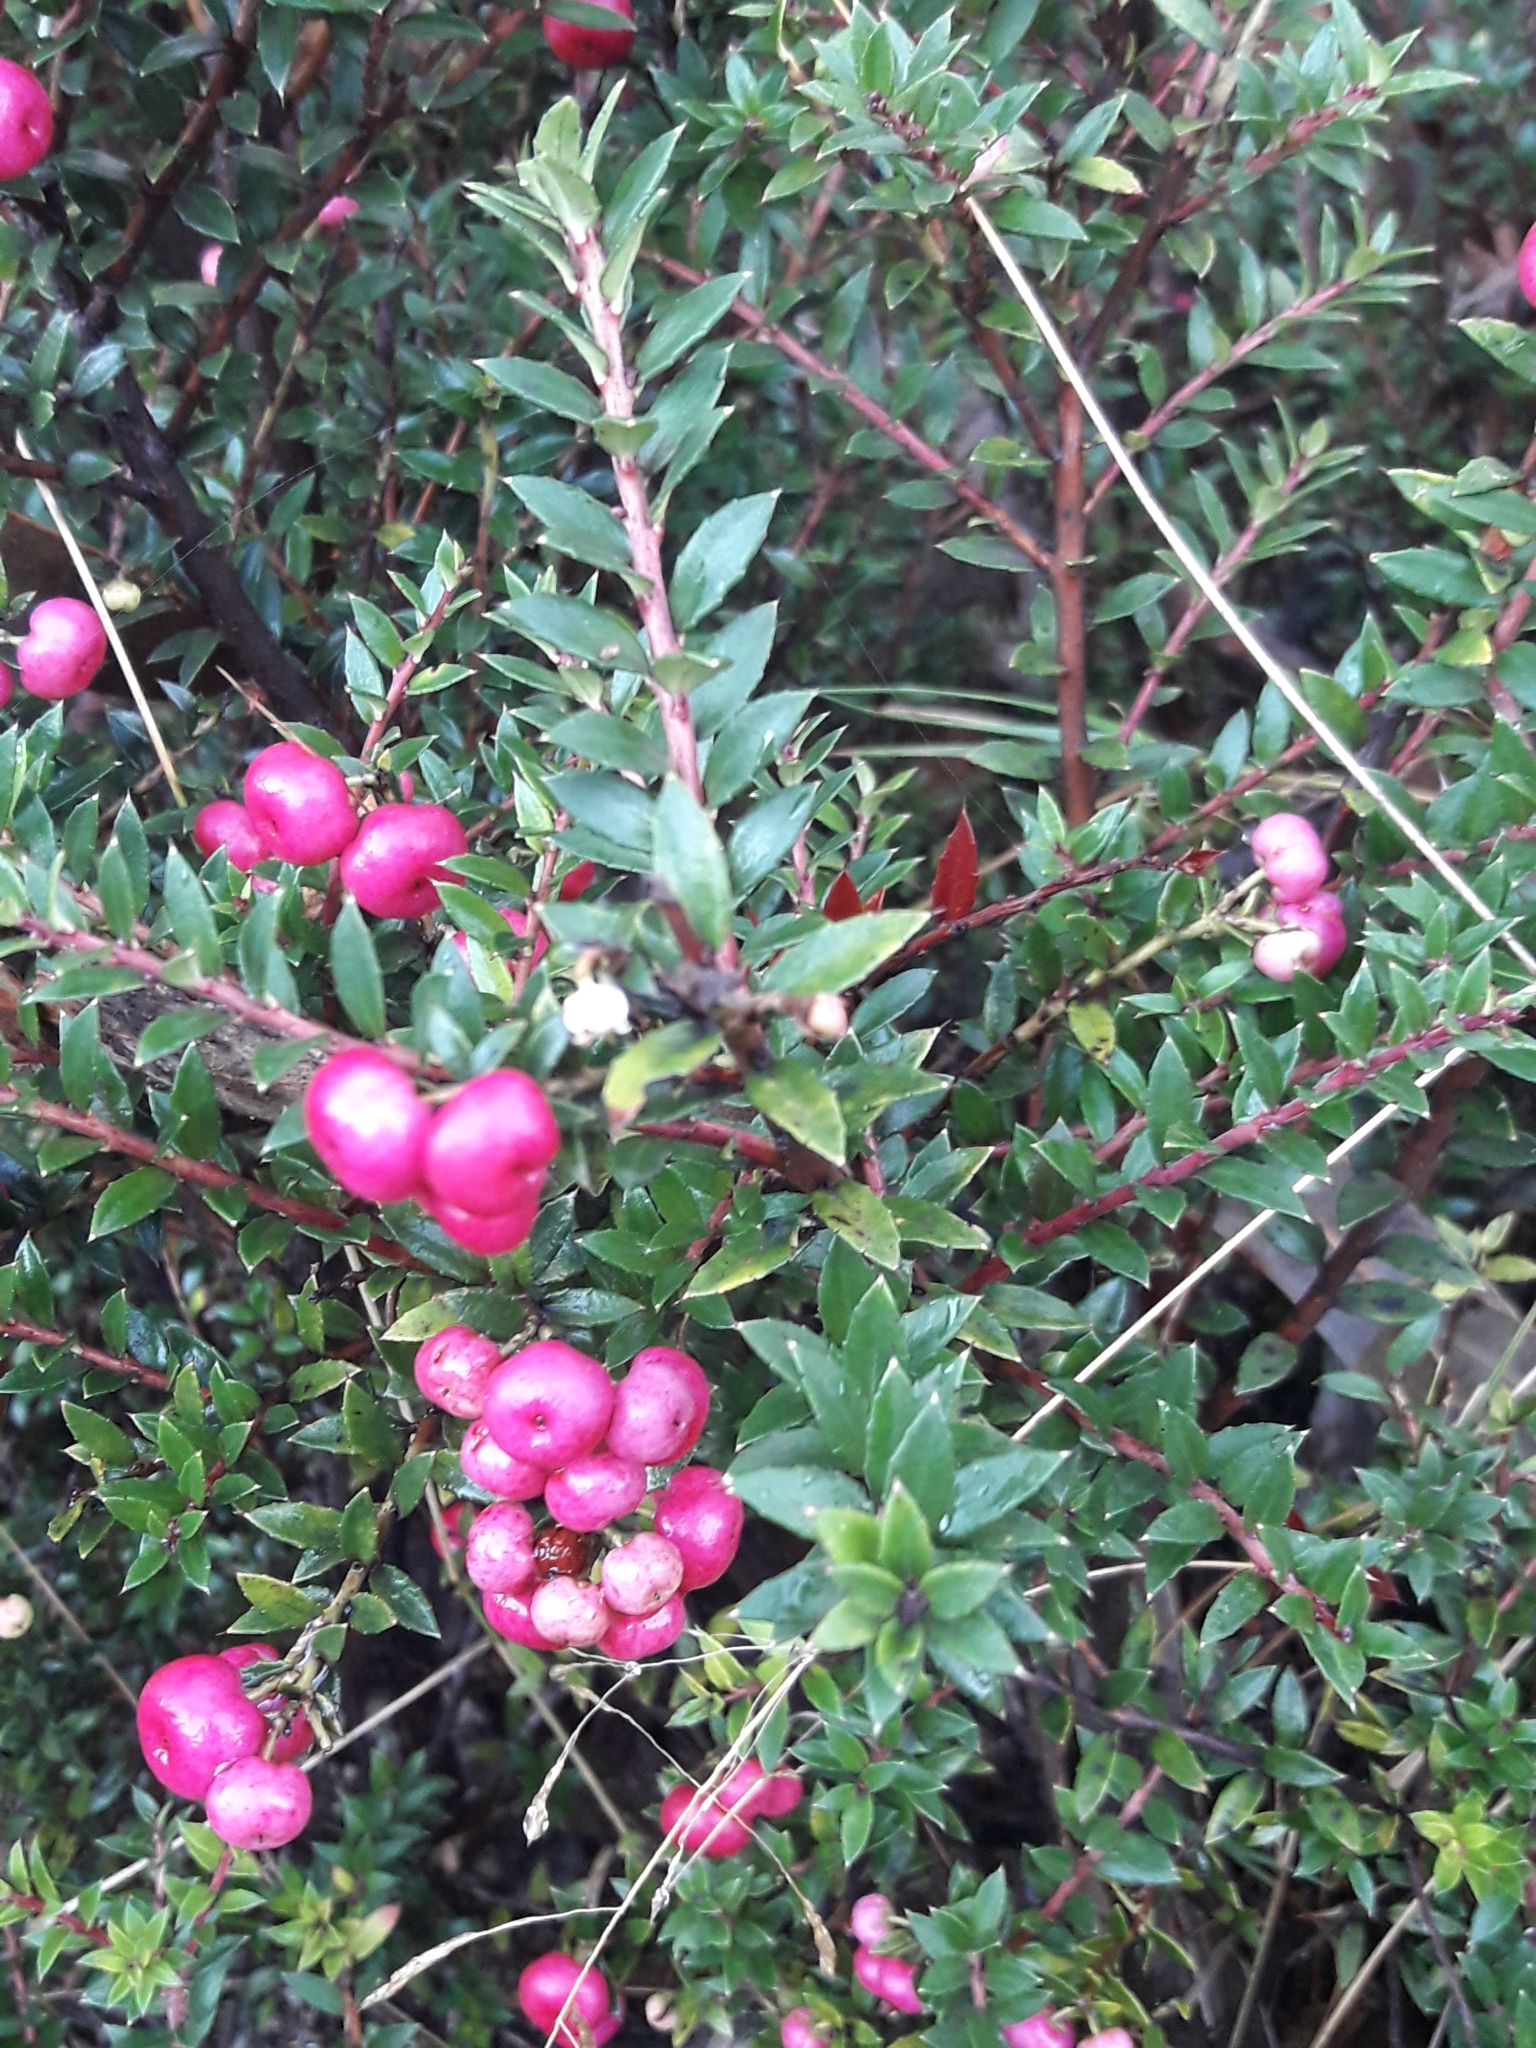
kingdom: Plantae
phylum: Tracheophyta
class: Magnoliopsida
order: Ericales
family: Ericaceae
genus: Gaultheria
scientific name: Gaultheria mucronata
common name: Prickly heath
